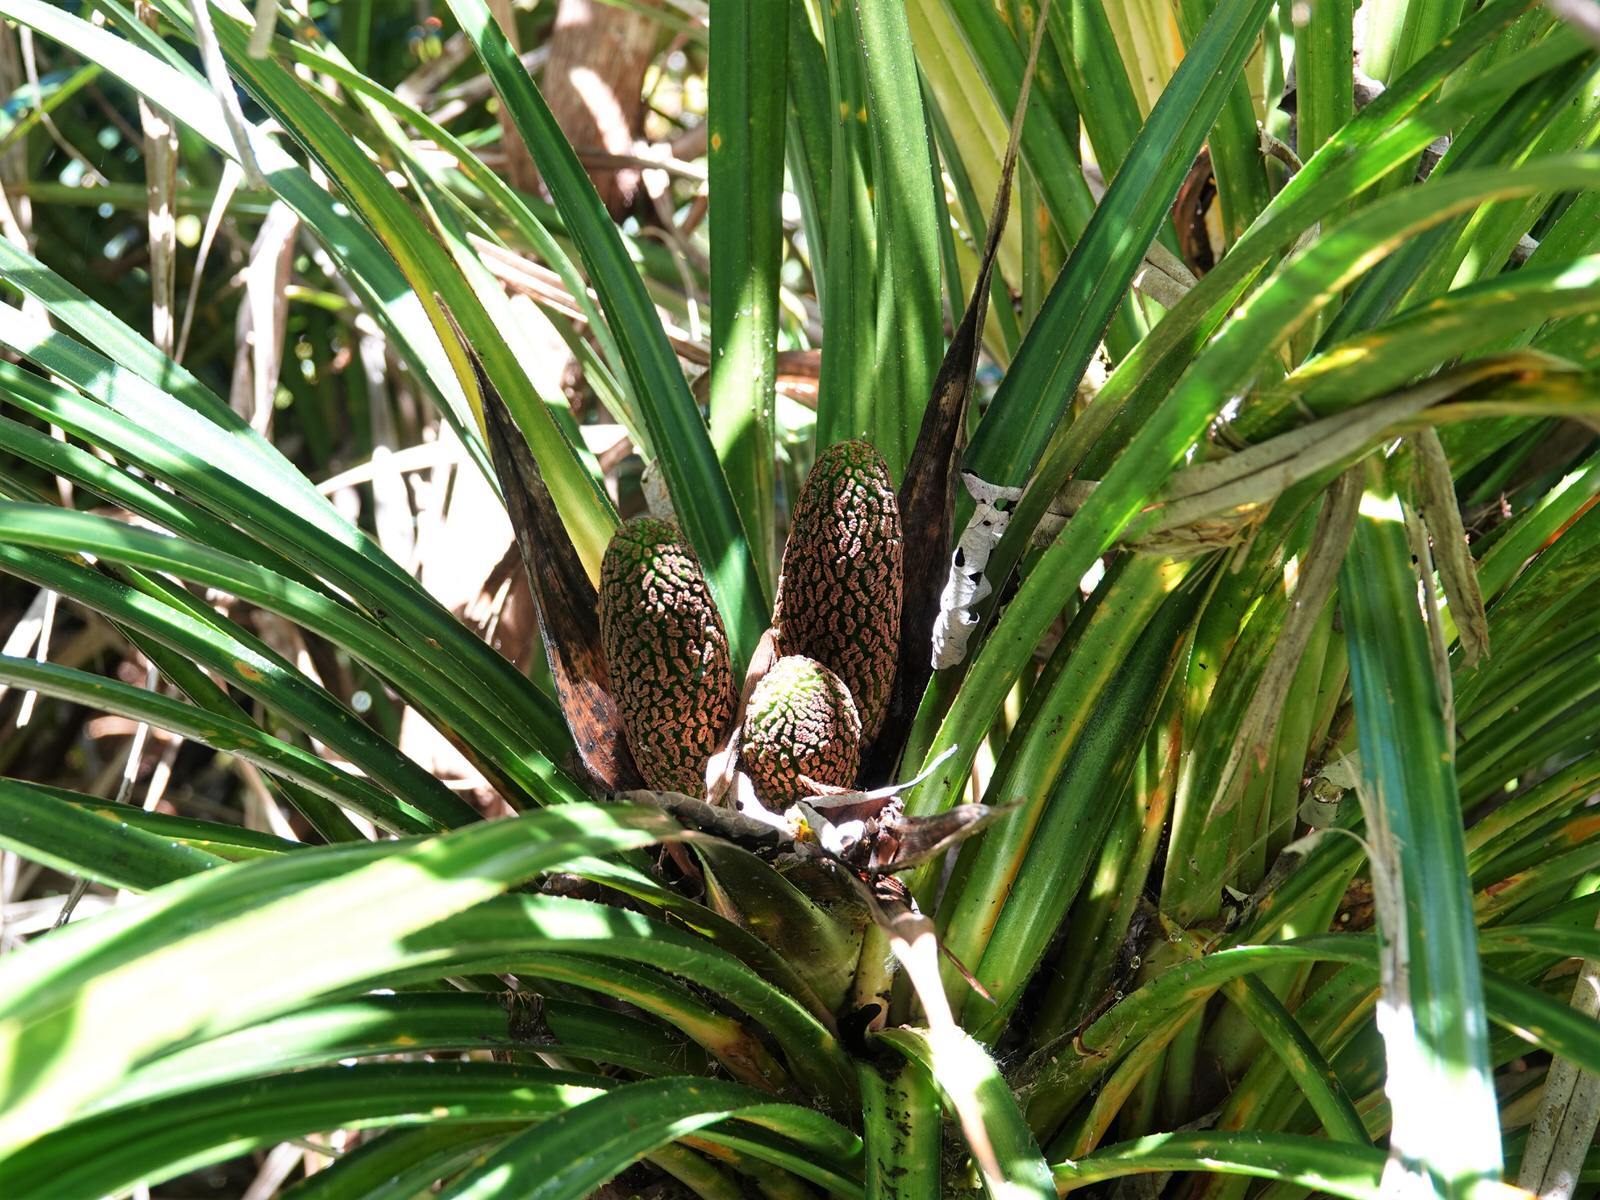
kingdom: Plantae
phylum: Tracheophyta
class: Liliopsida
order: Pandanales
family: Pandanaceae
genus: Freycinetia
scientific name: Freycinetia banksii
